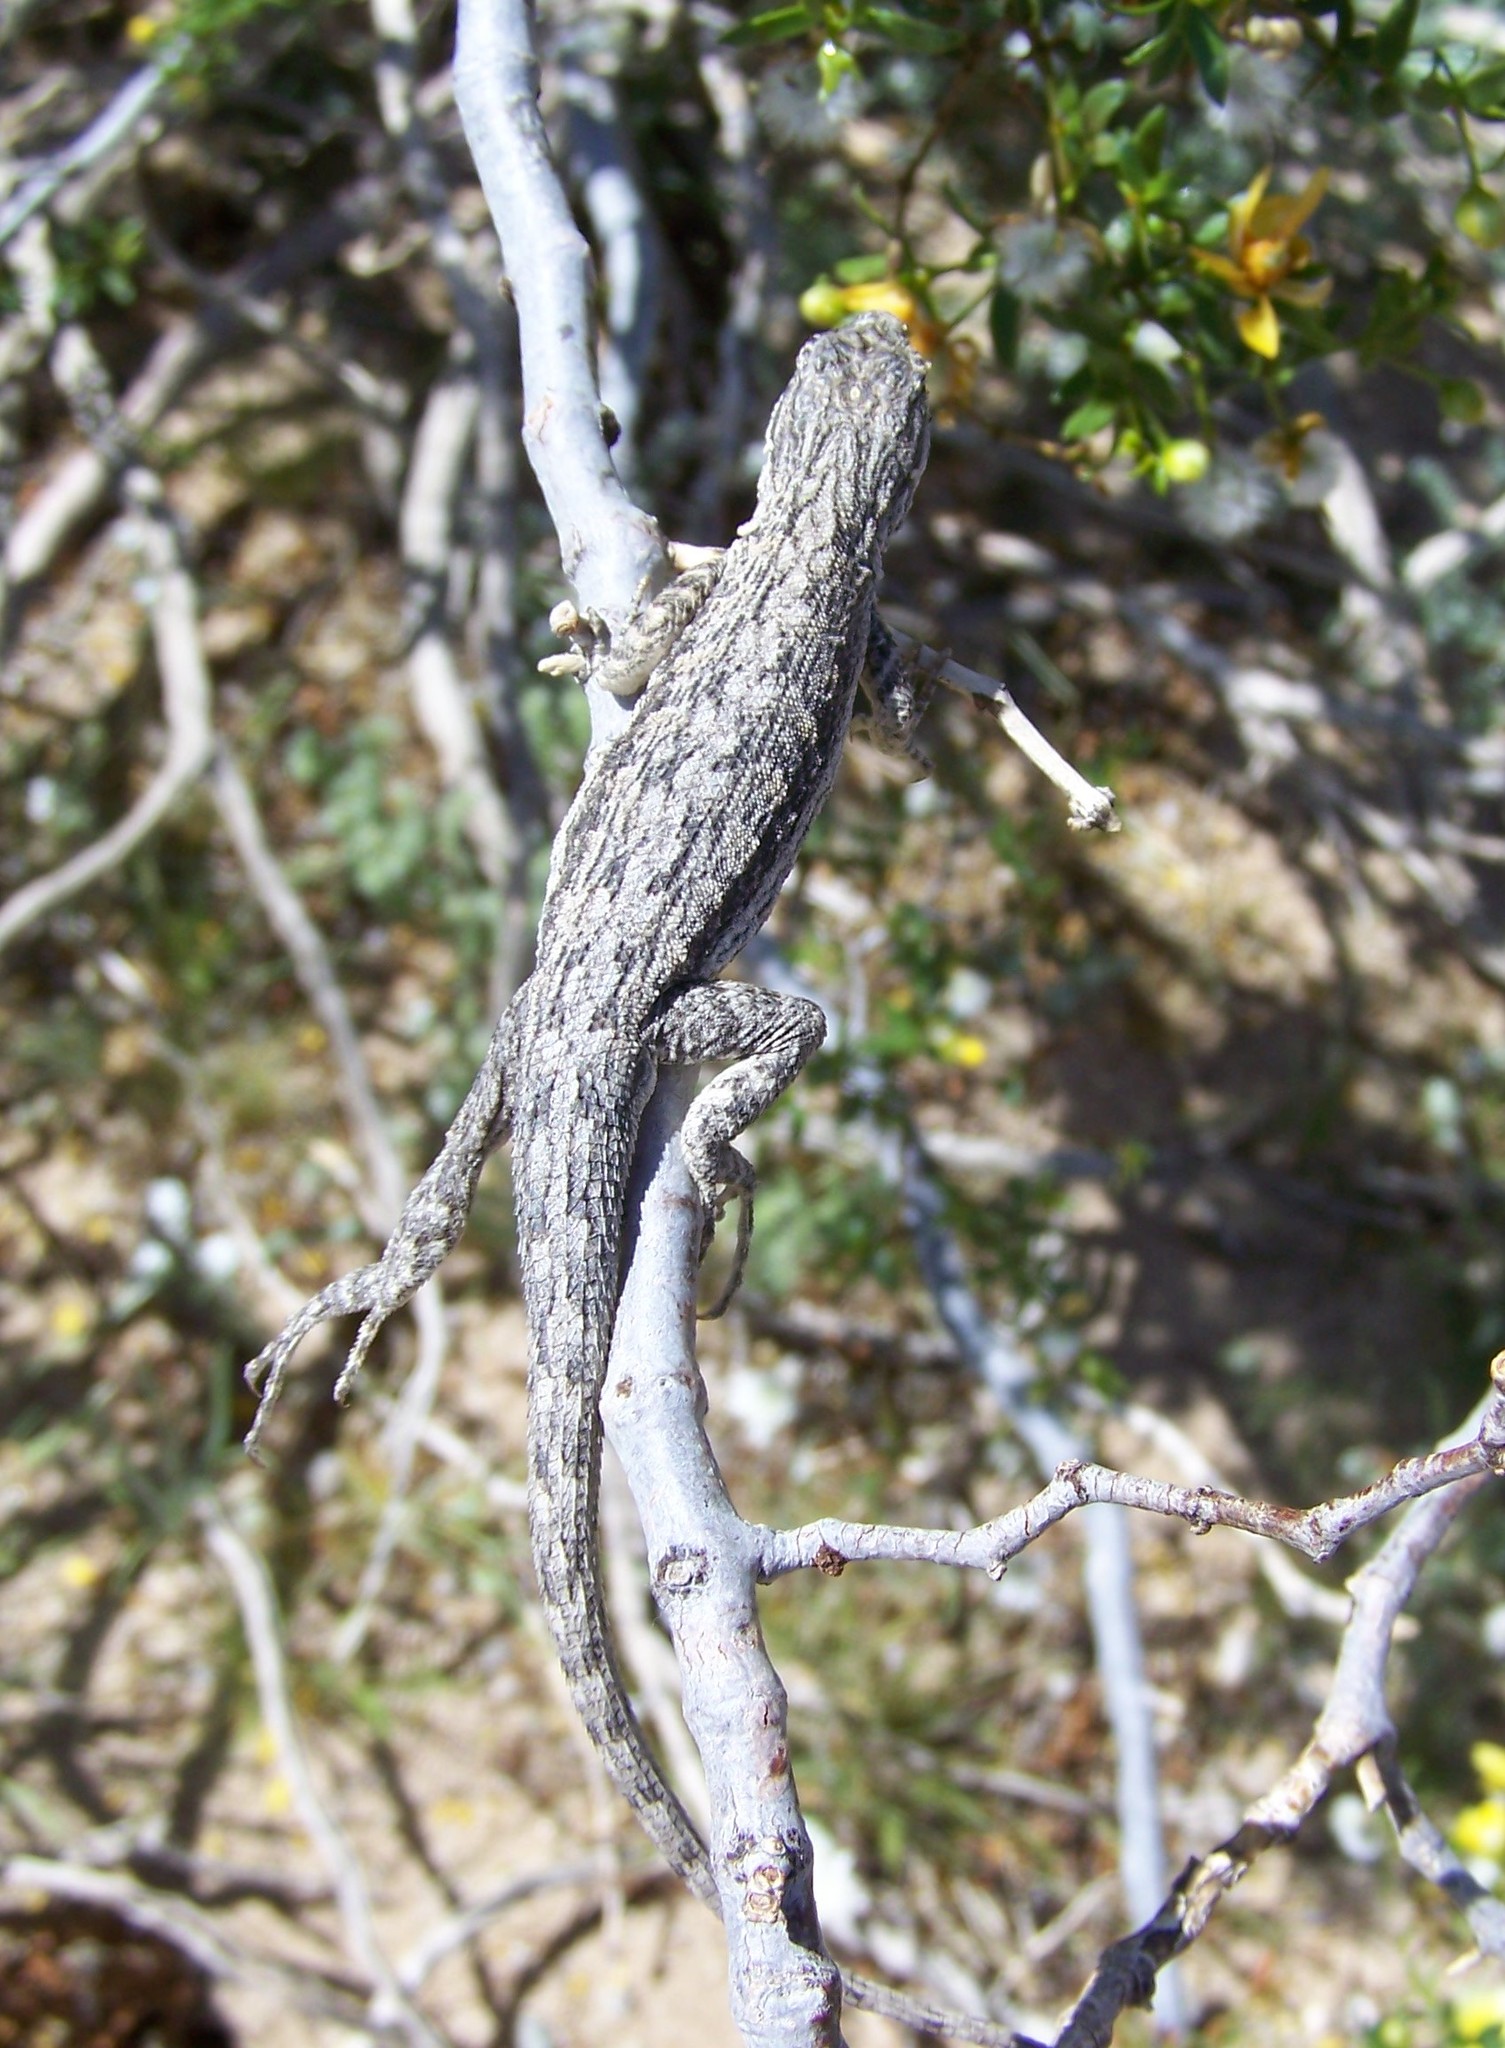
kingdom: Animalia
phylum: Chordata
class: Squamata
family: Phrynosomatidae
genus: Urosaurus
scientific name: Urosaurus graciosus
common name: Long-tailed brush lizard
